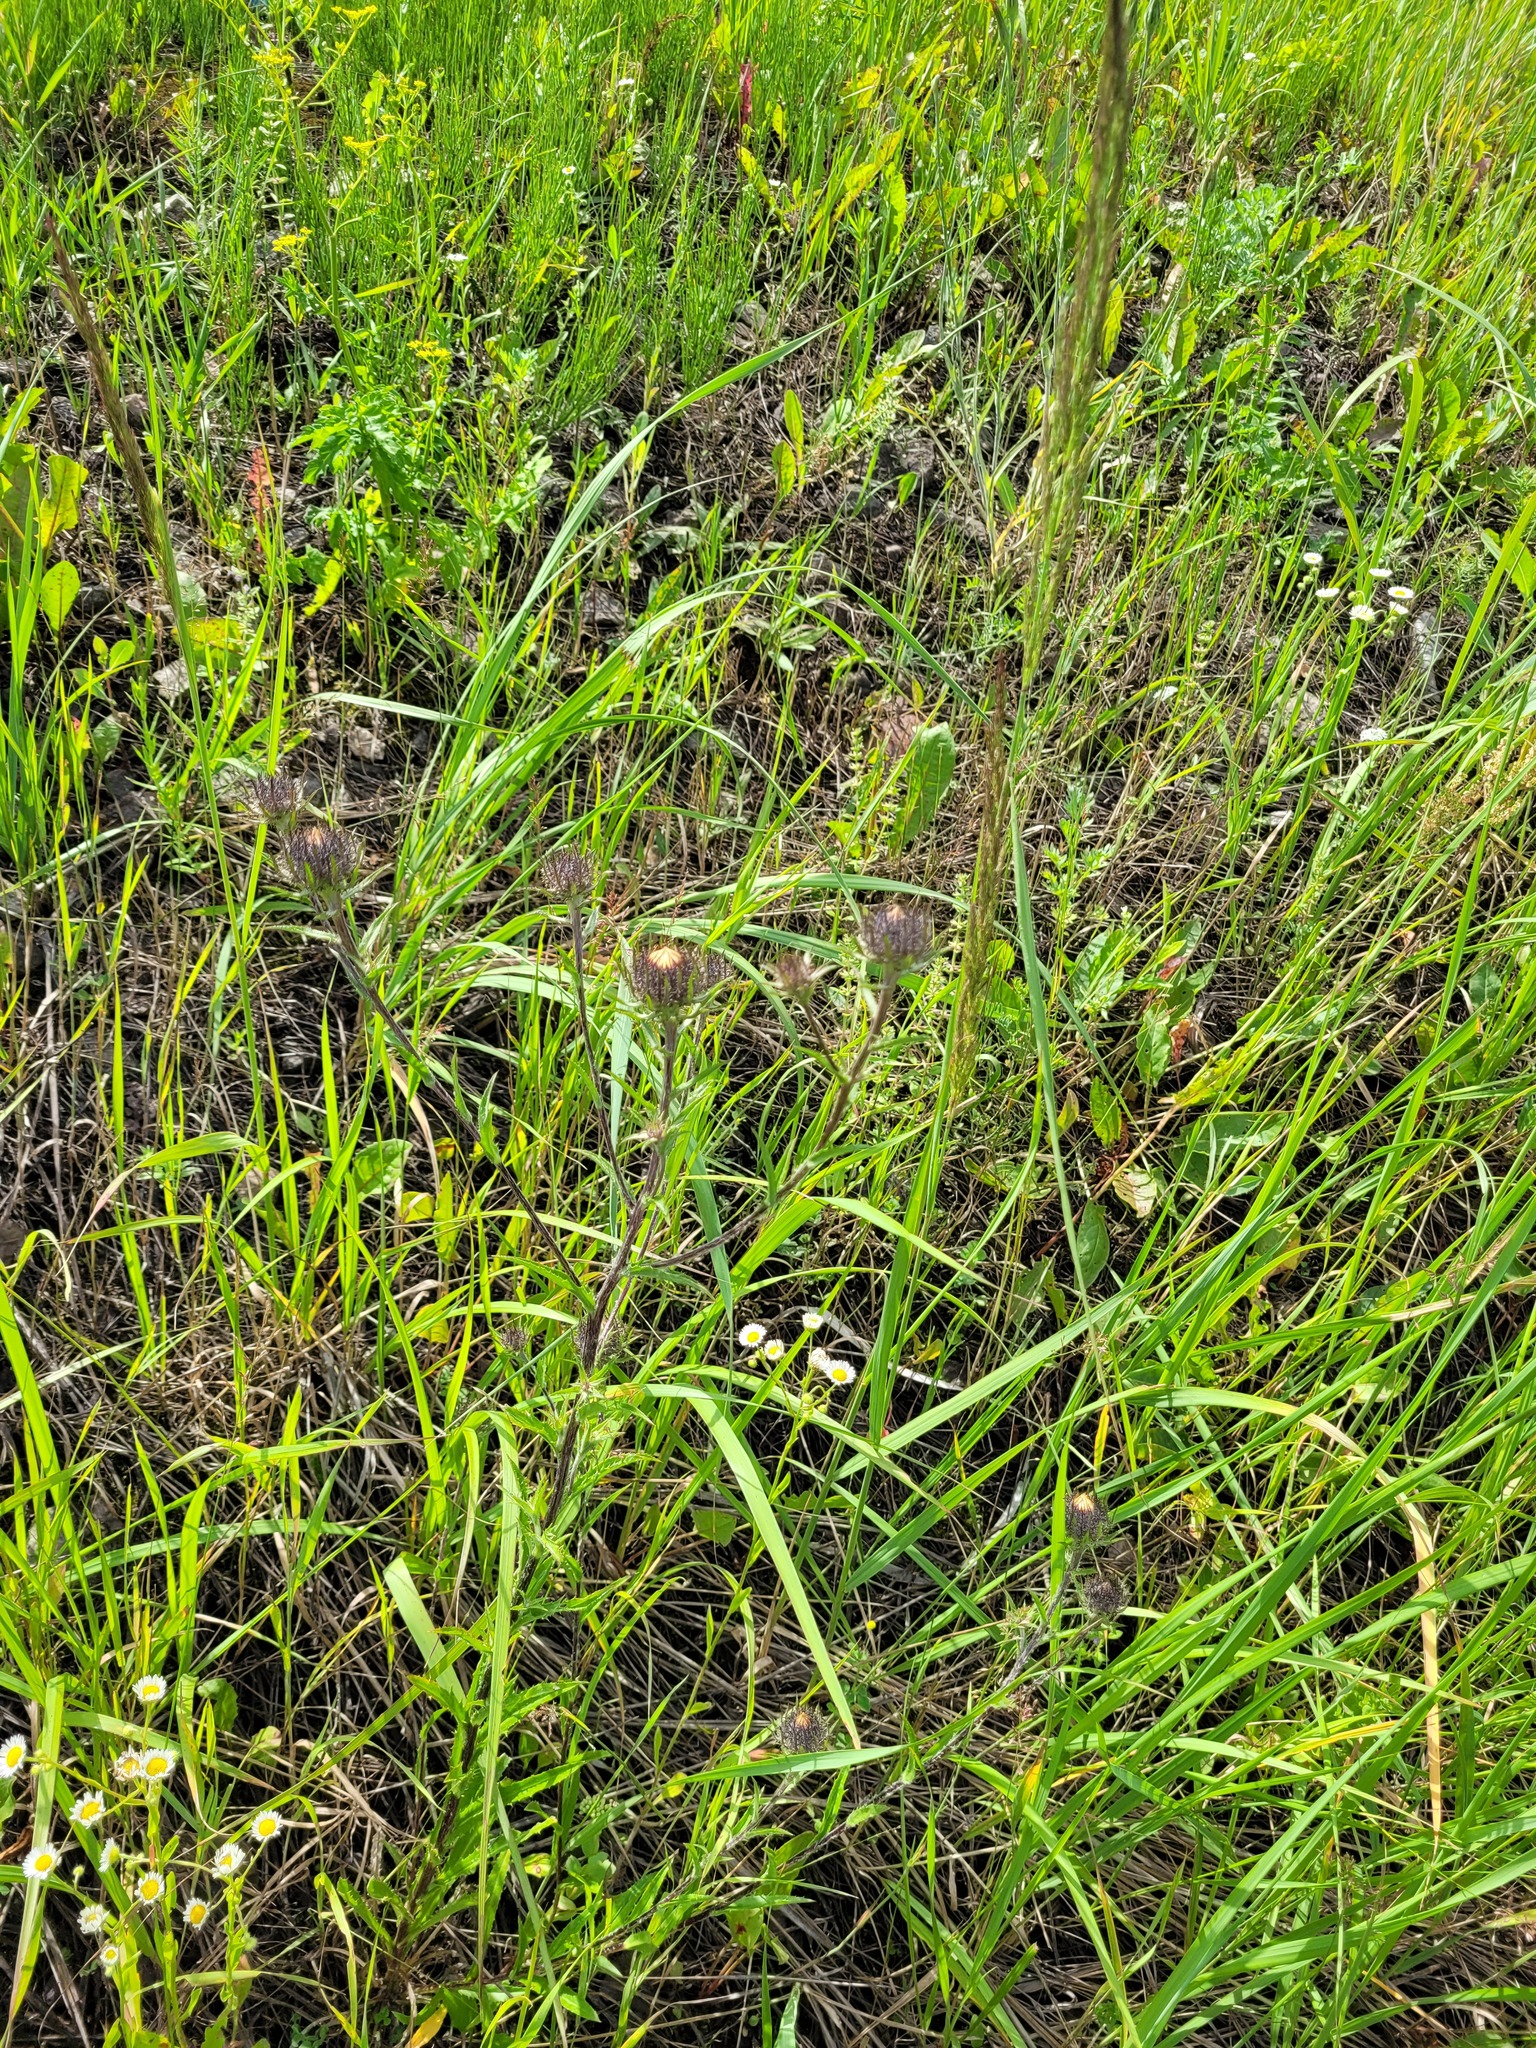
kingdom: Plantae
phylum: Tracheophyta
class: Magnoliopsida
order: Asterales
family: Asteraceae
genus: Carlina
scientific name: Carlina biebersteinii
